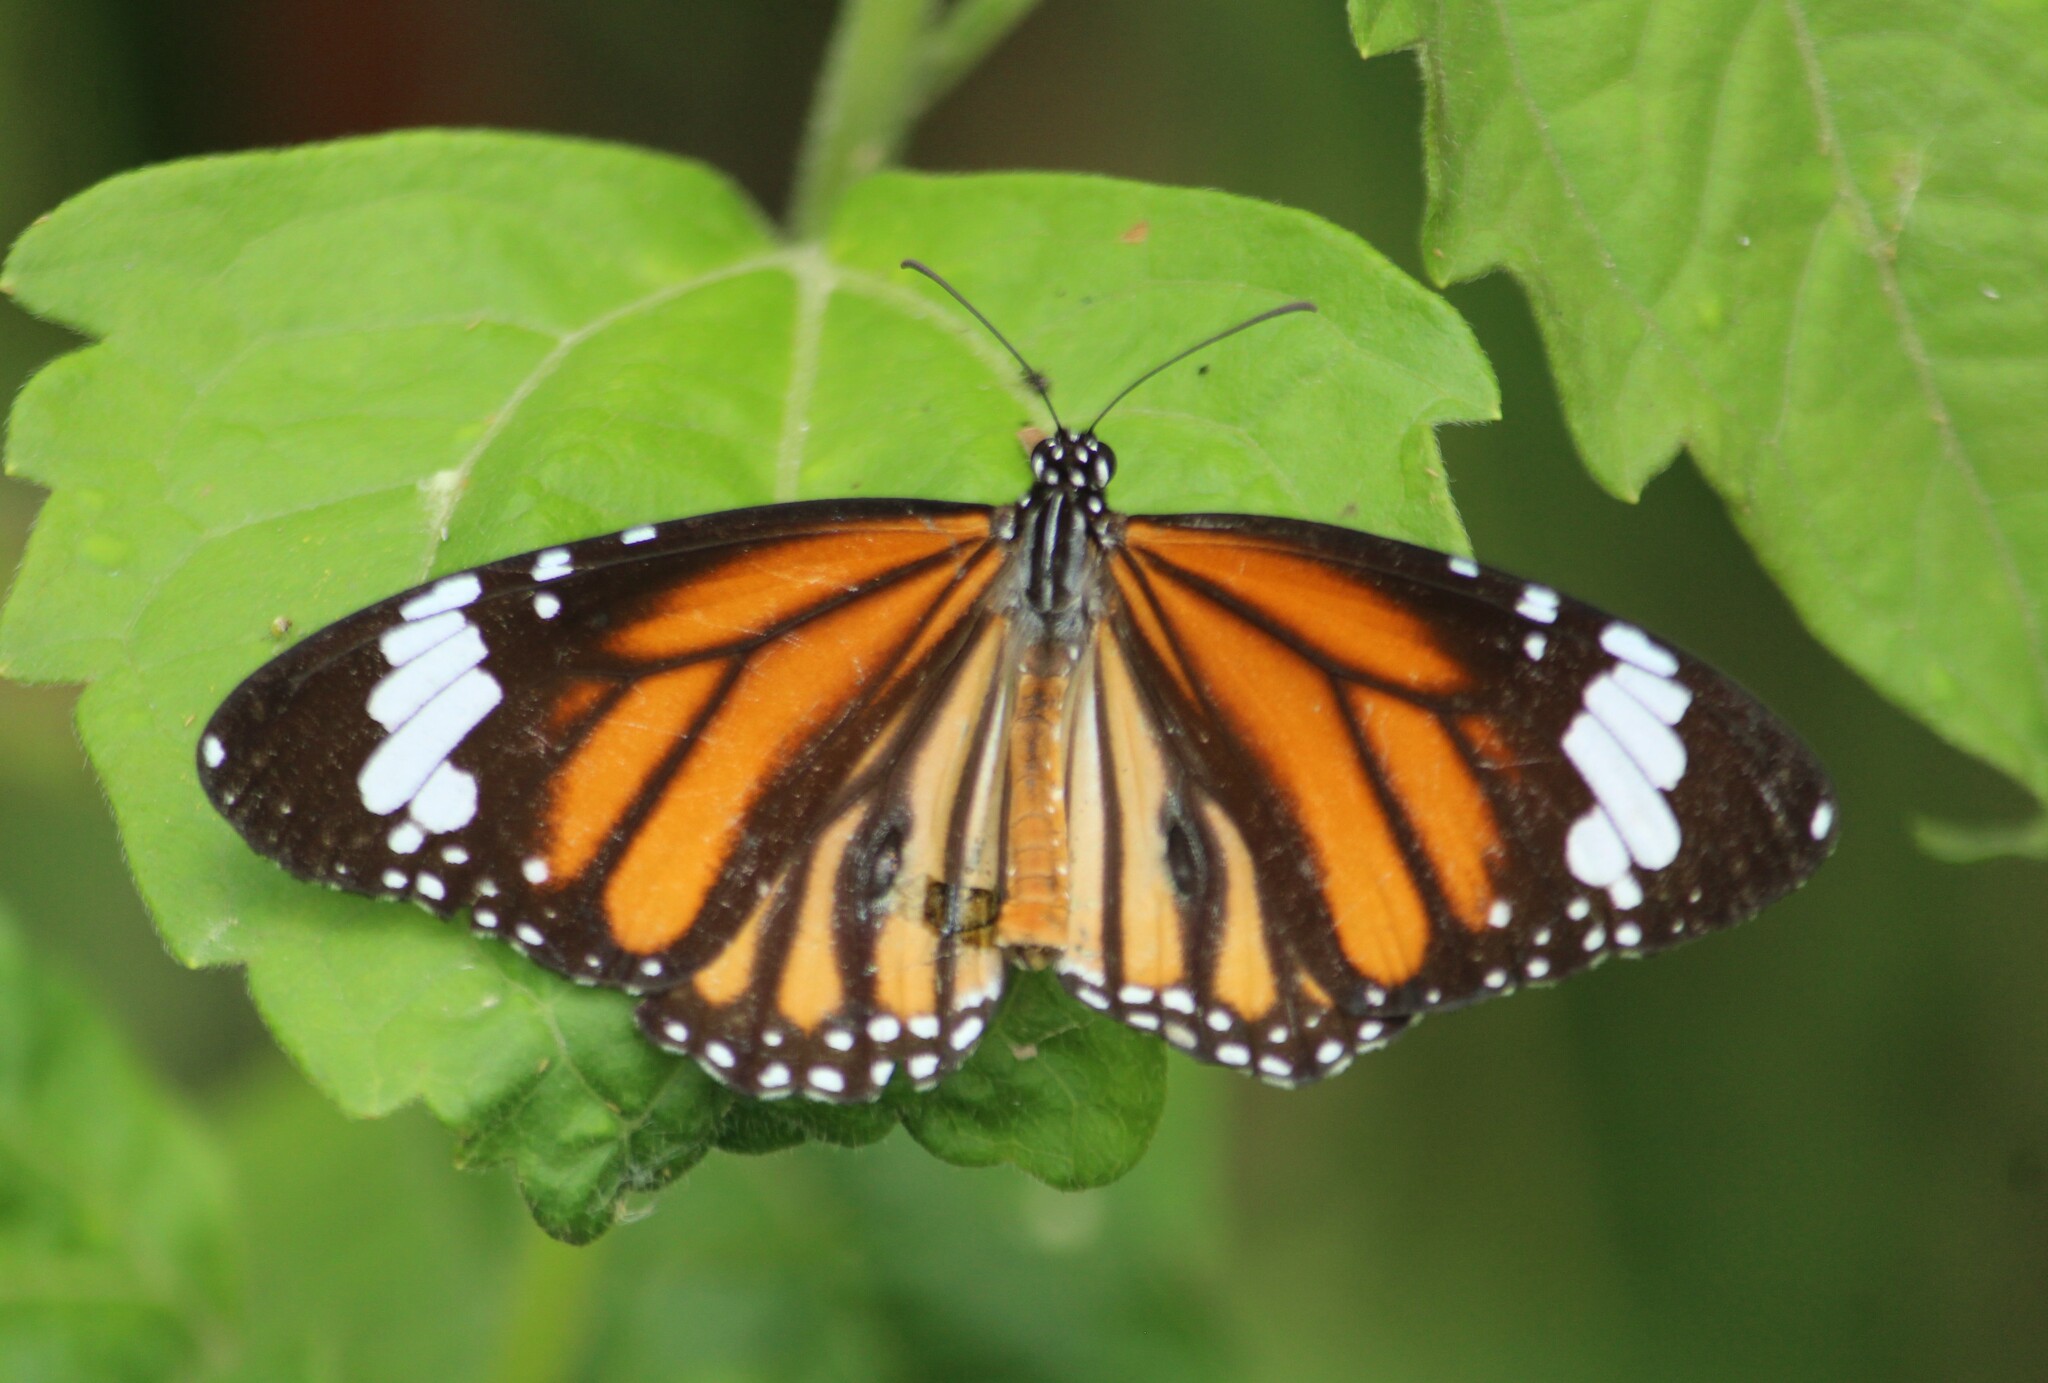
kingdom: Animalia
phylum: Arthropoda
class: Insecta
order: Lepidoptera
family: Nymphalidae
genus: Danaus
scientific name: Danaus genutia
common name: Common tiger butterfly
